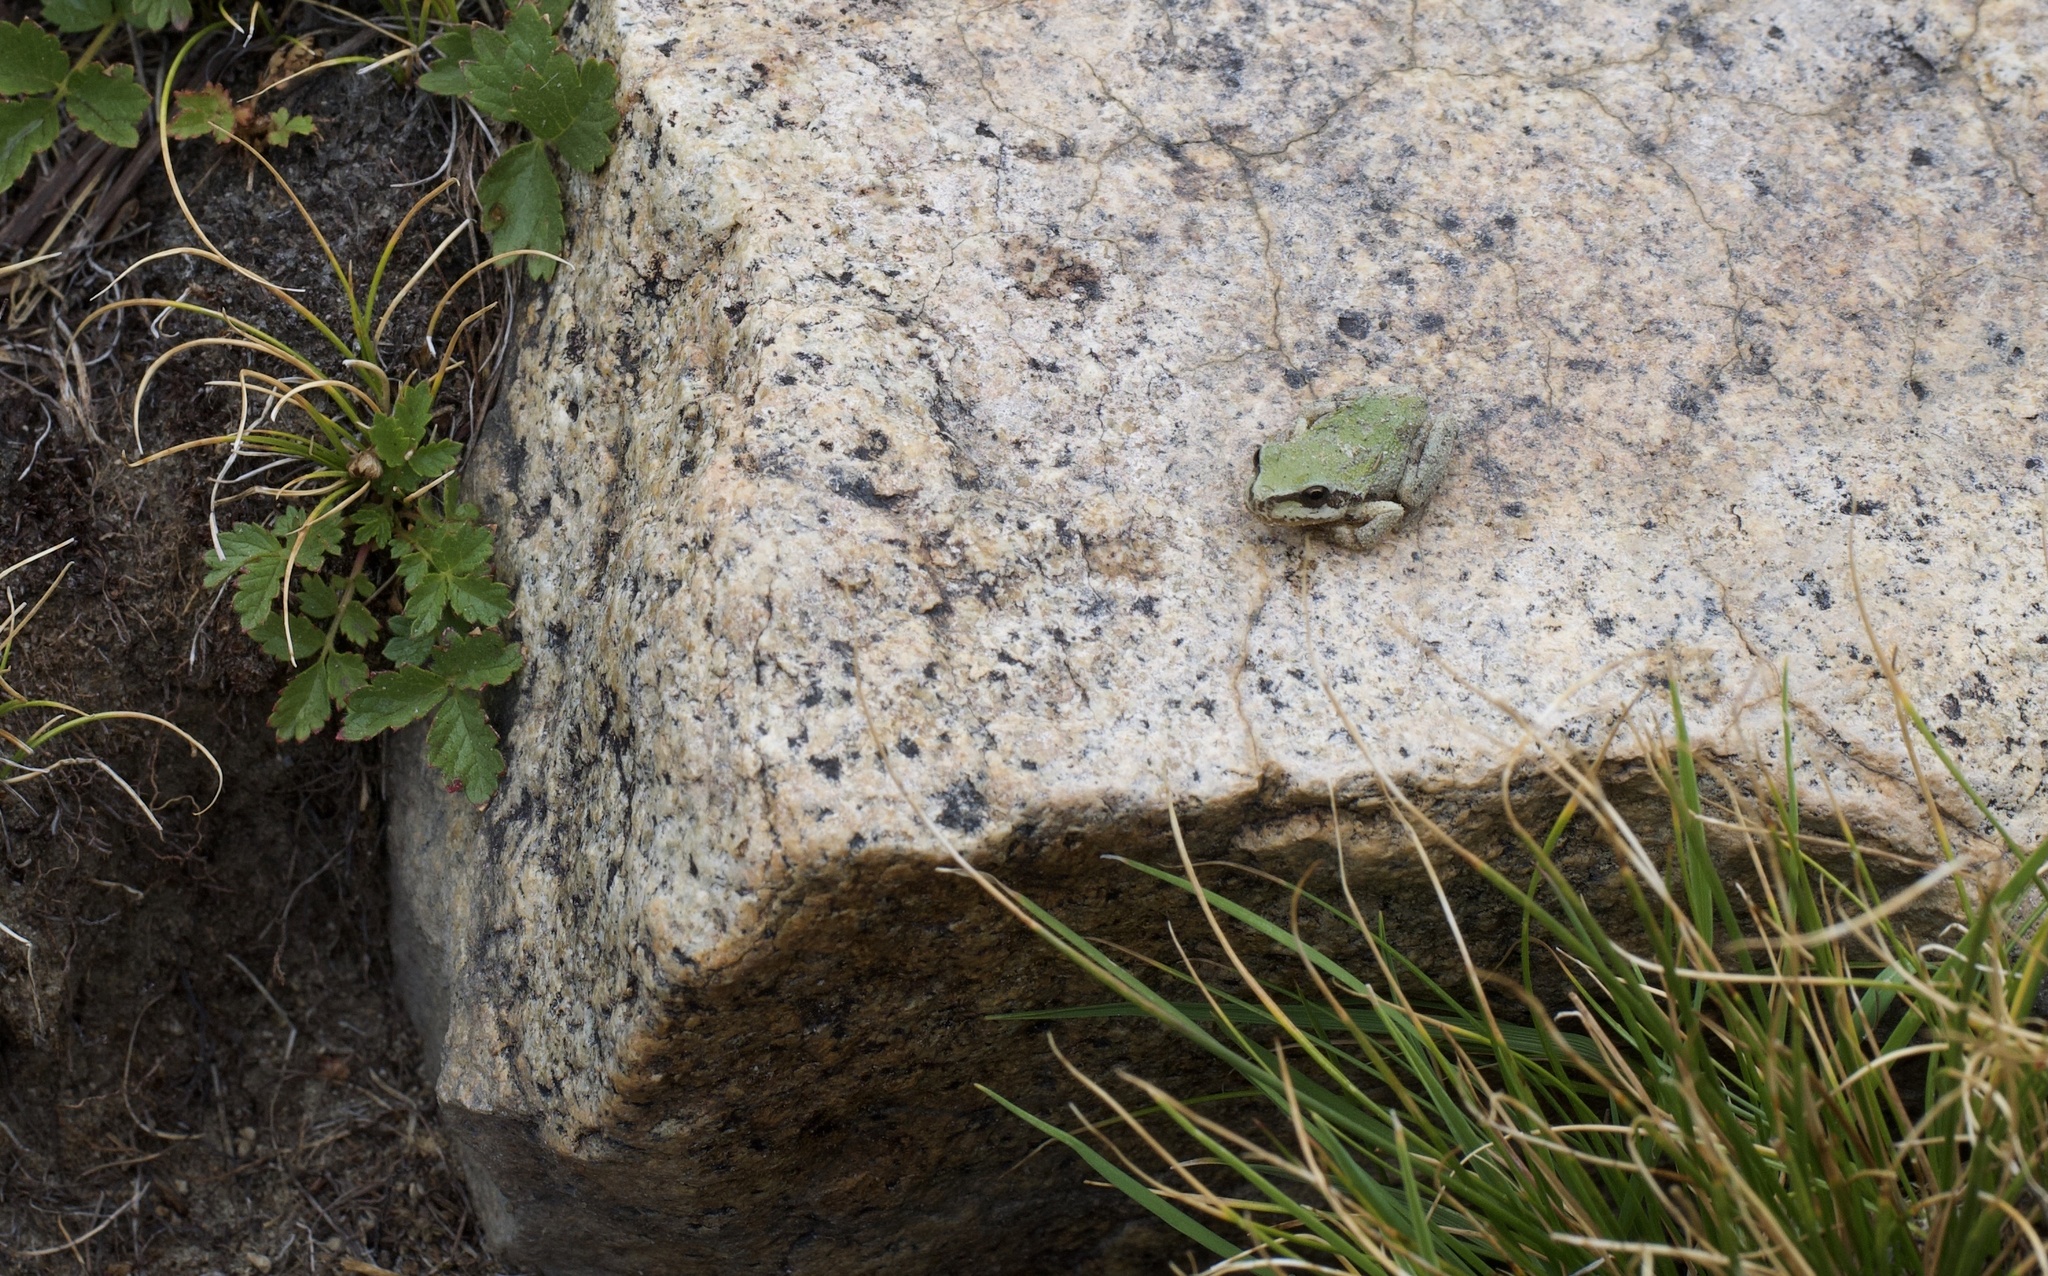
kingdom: Animalia
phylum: Chordata
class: Amphibia
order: Anura
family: Hylidae
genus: Pseudacris
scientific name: Pseudacris regilla
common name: Pacific chorus frog
